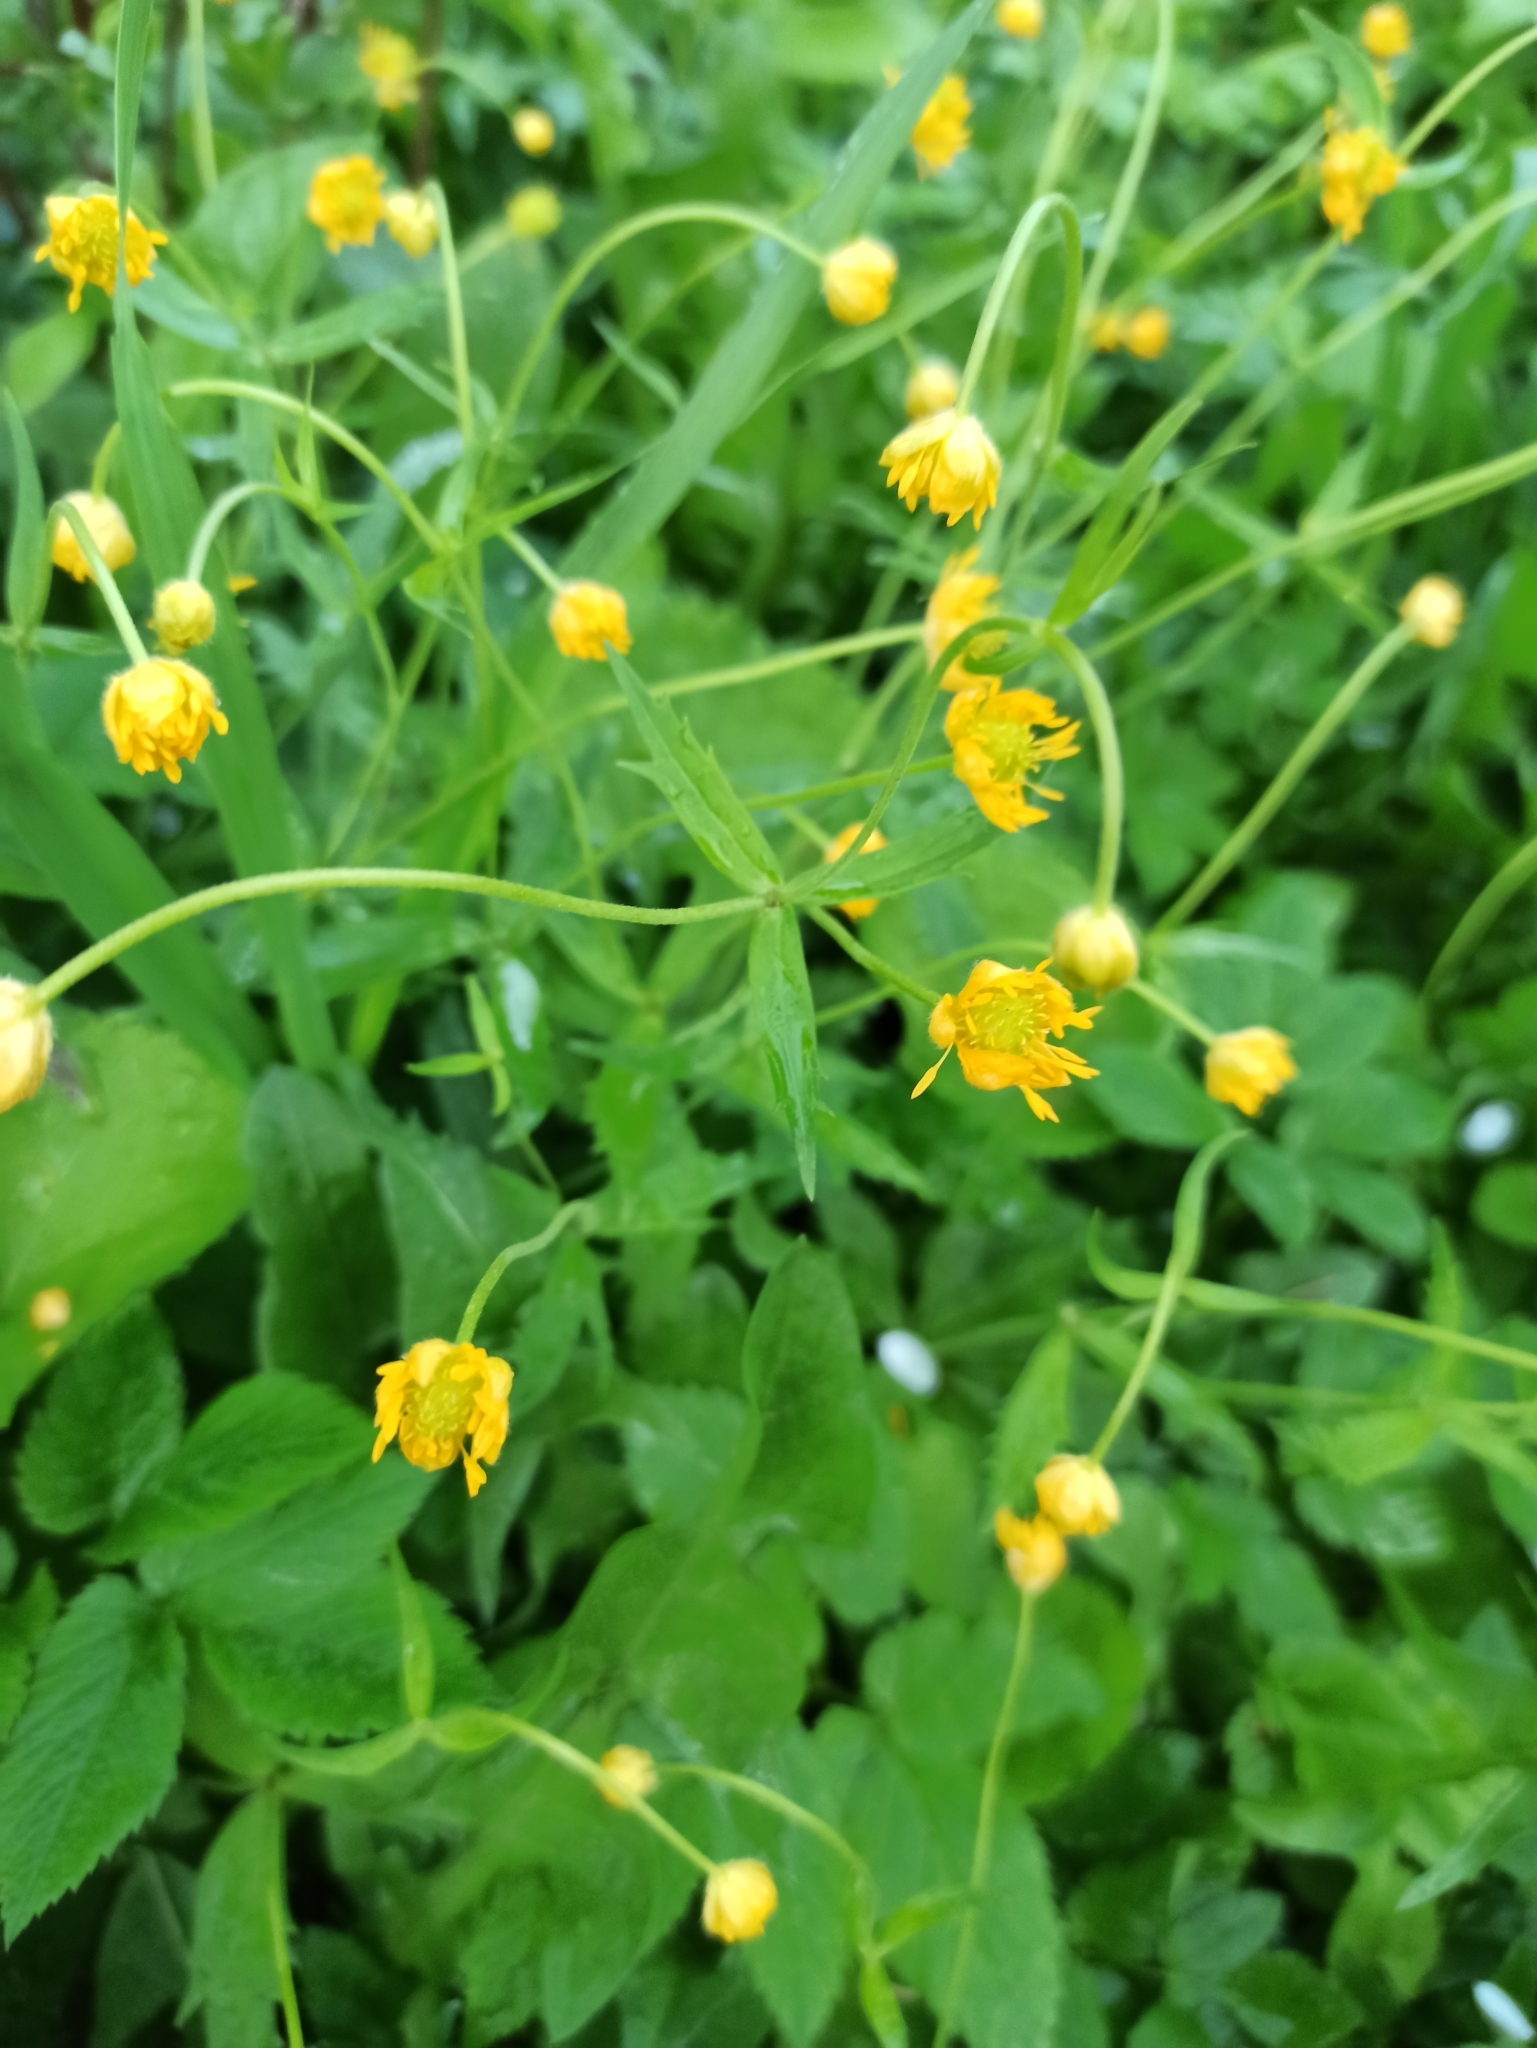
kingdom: Plantae
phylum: Tracheophyta
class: Magnoliopsida
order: Ranunculales
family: Ranunculaceae
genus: Ranunculus
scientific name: Ranunculus cassubicus
